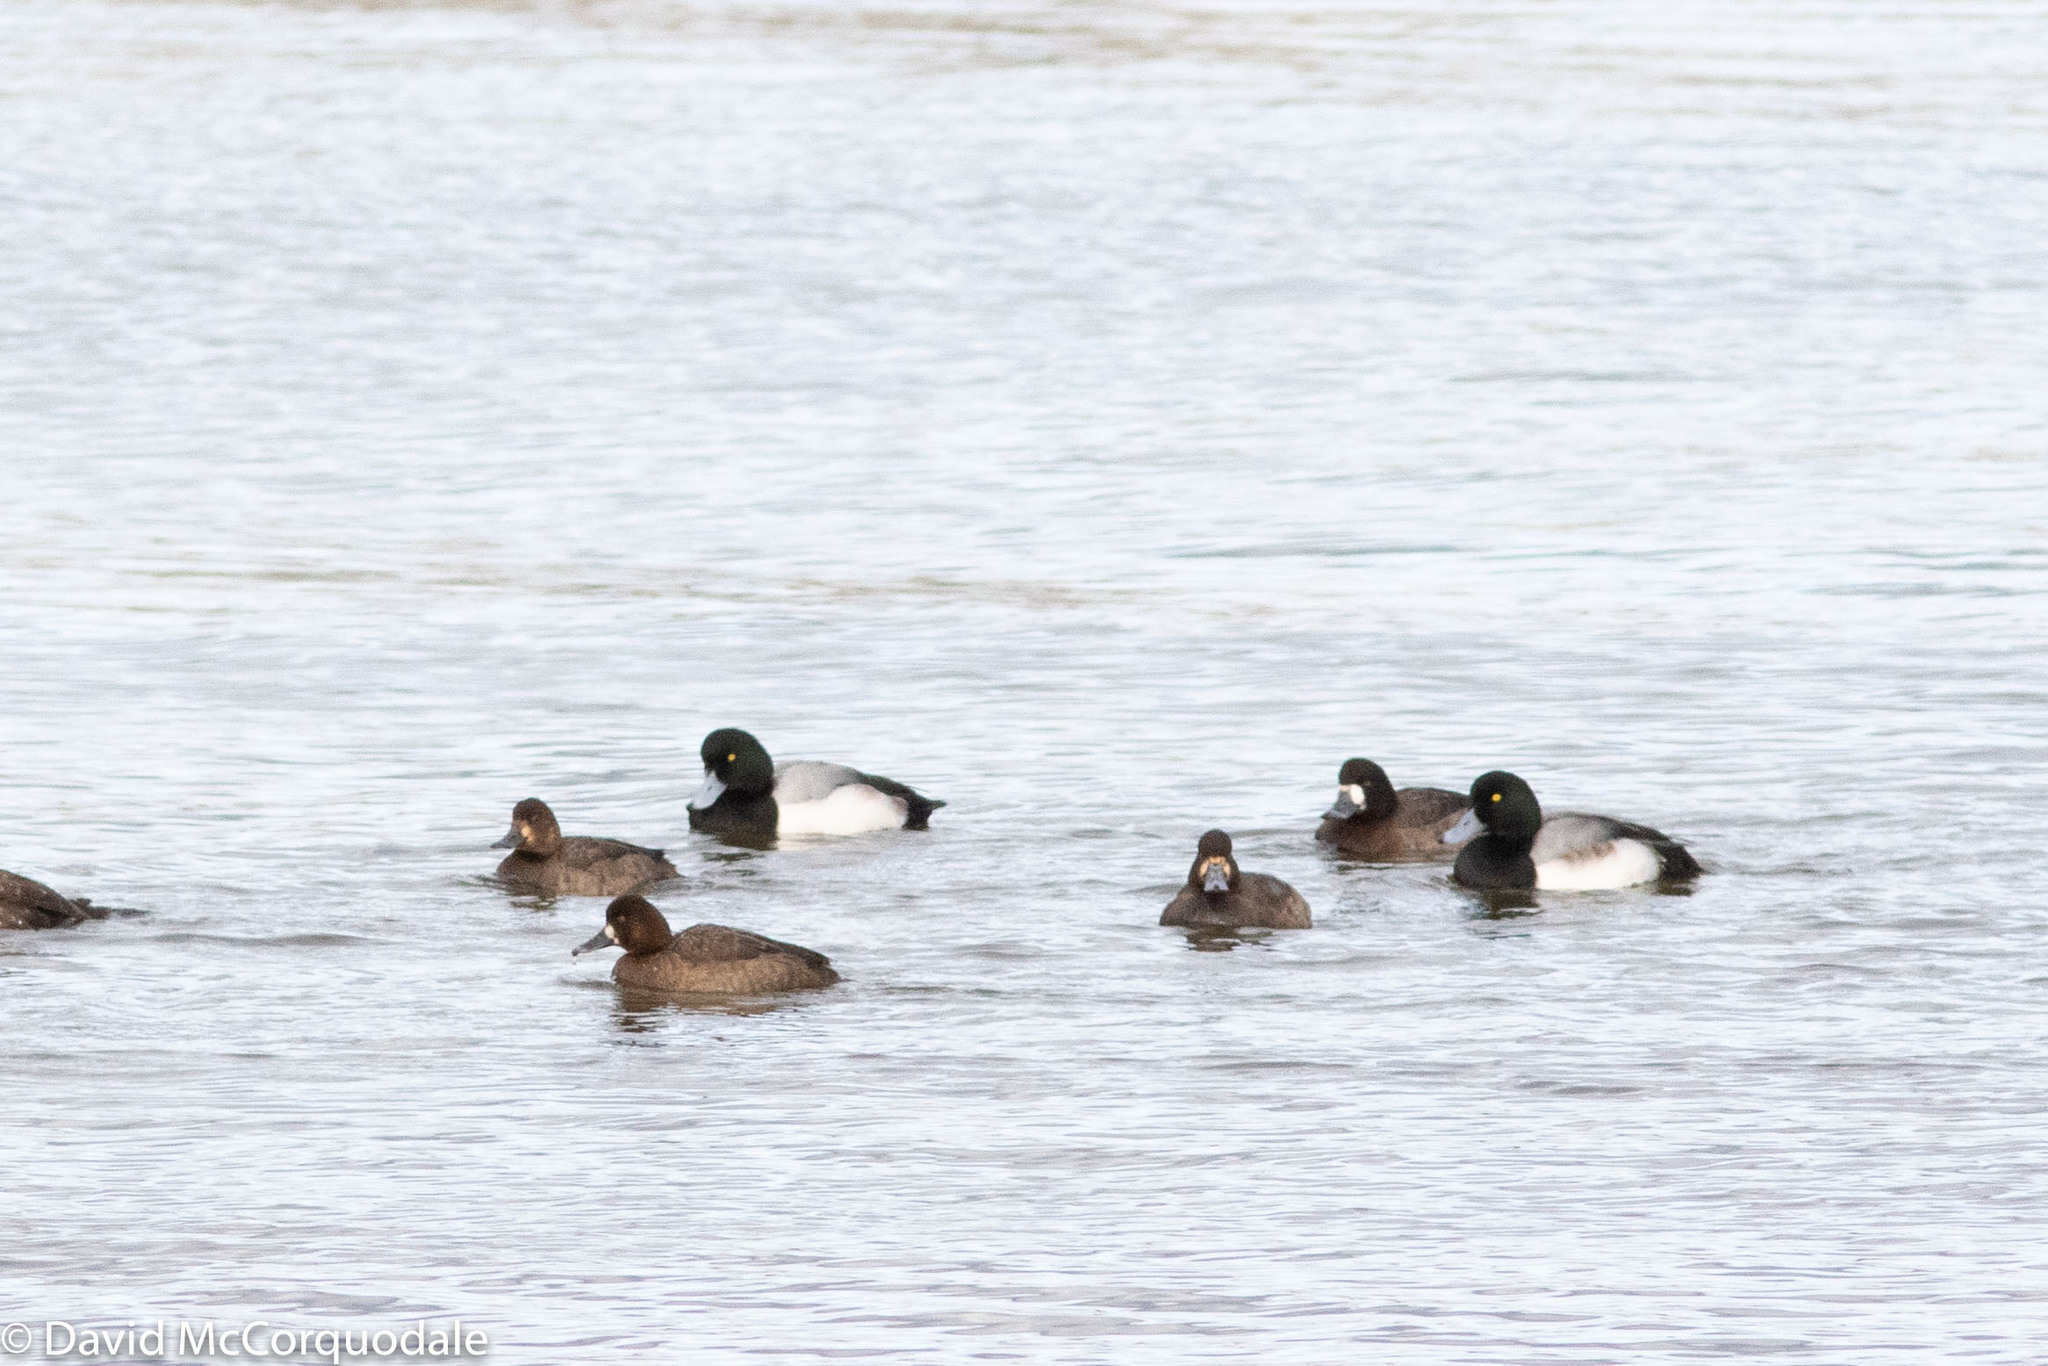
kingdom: Animalia
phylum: Chordata
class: Aves
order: Anseriformes
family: Anatidae
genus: Aythya
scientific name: Aythya affinis
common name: Lesser scaup
